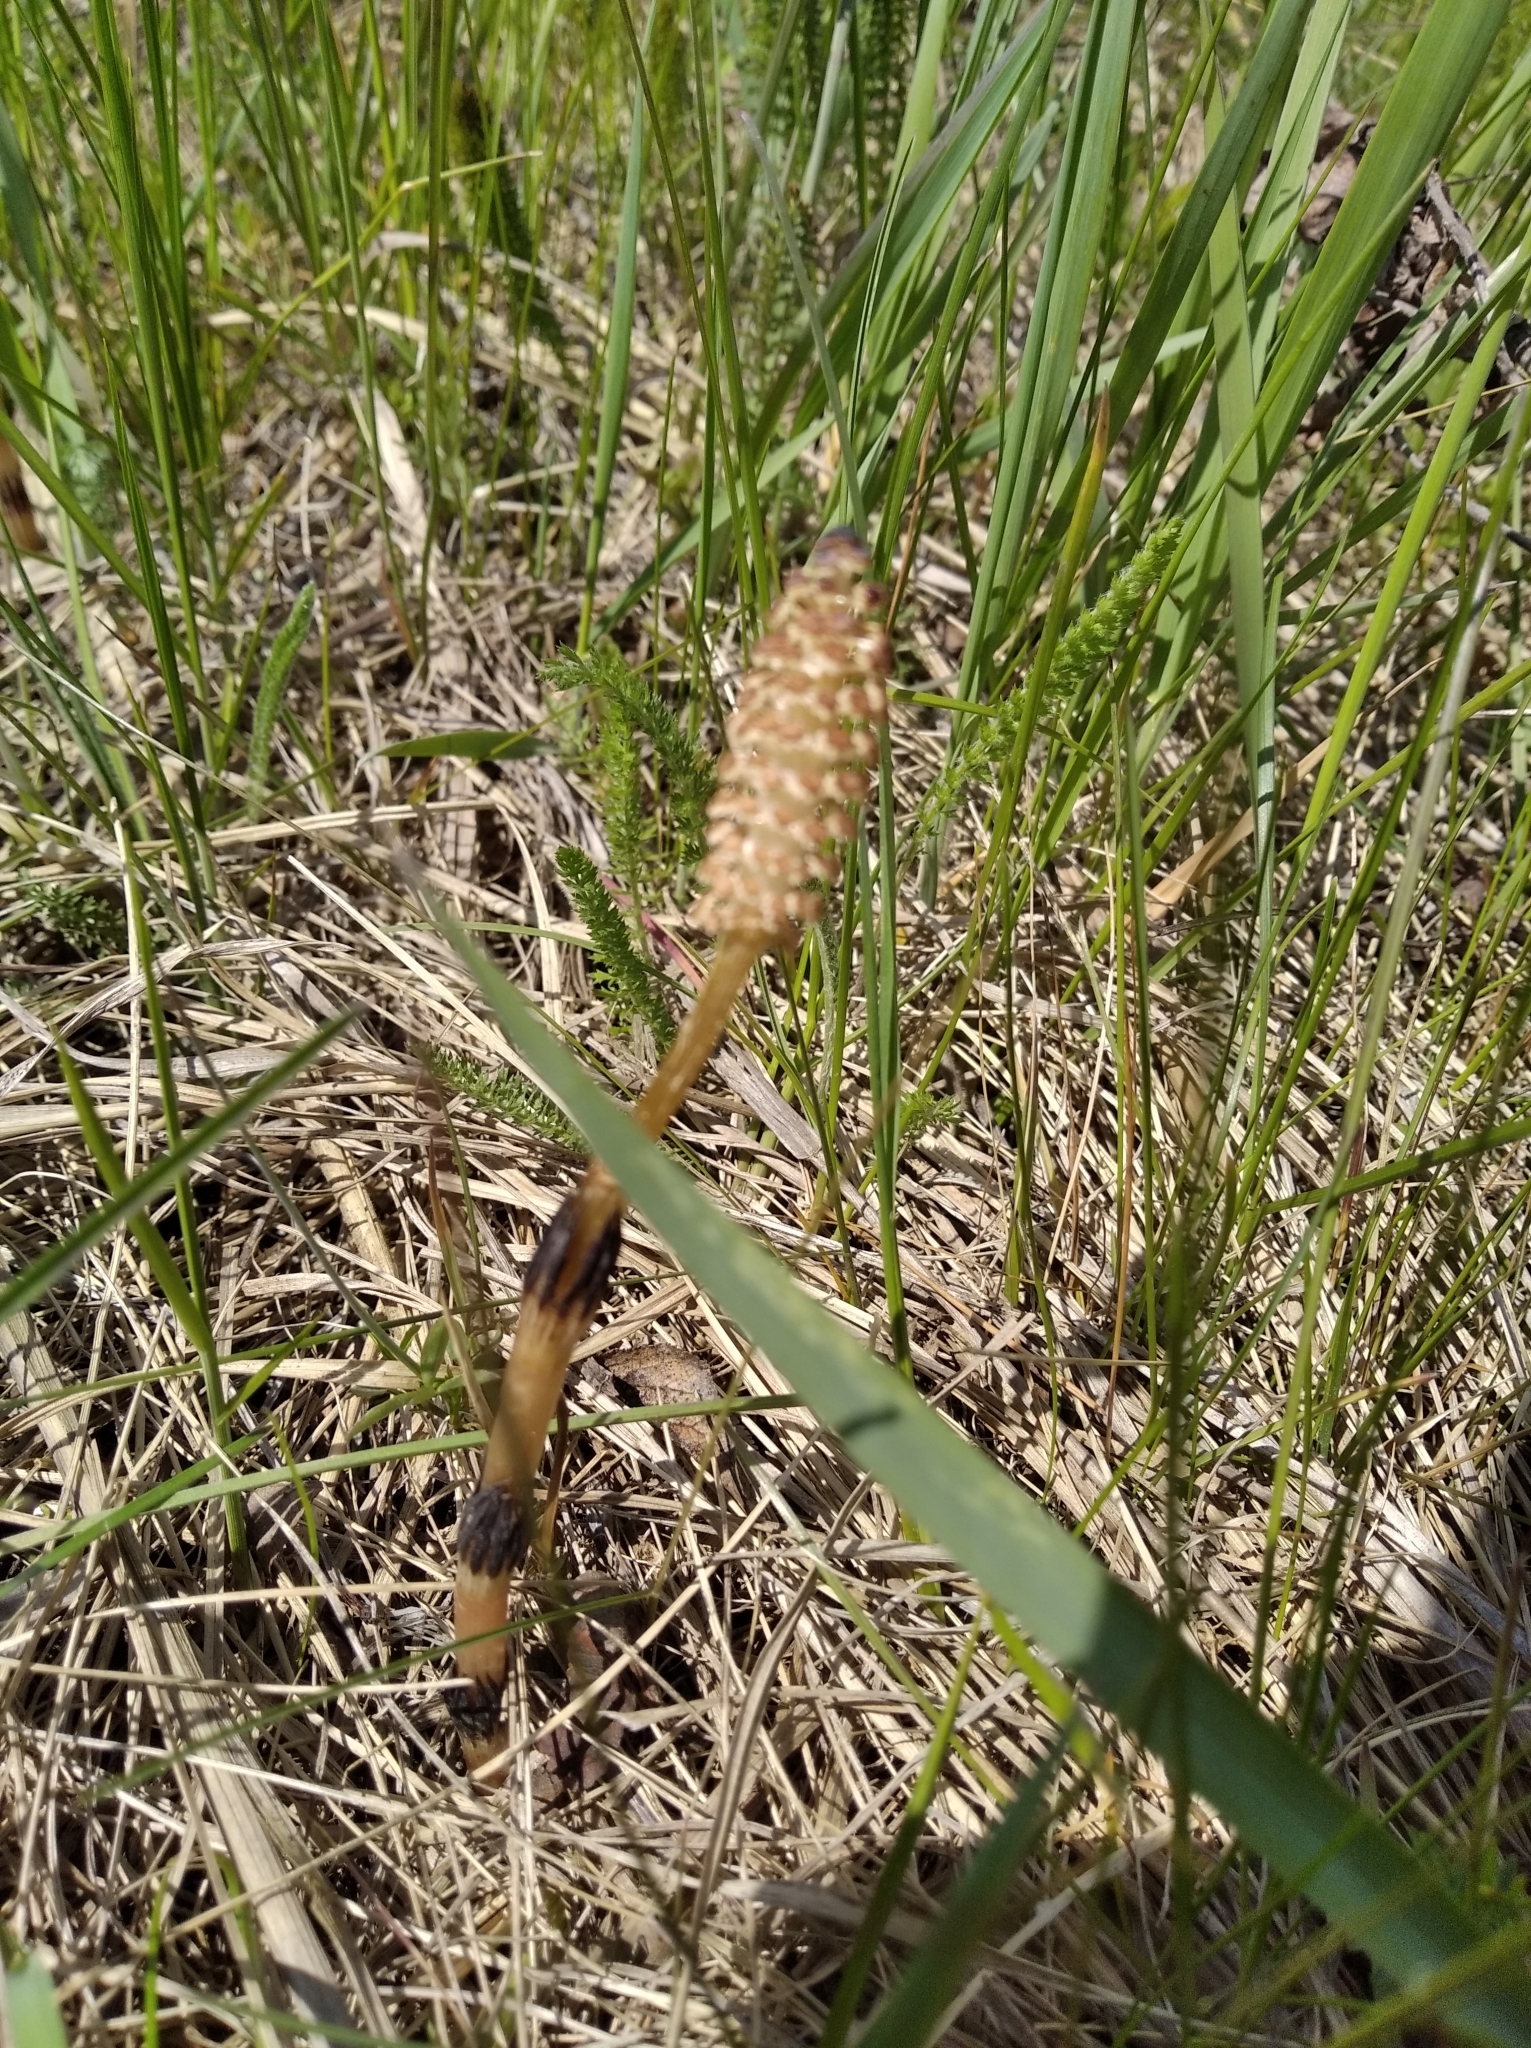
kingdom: Plantae
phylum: Tracheophyta
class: Polypodiopsida
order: Equisetales
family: Equisetaceae
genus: Equisetum
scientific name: Equisetum arvense
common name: Field horsetail
